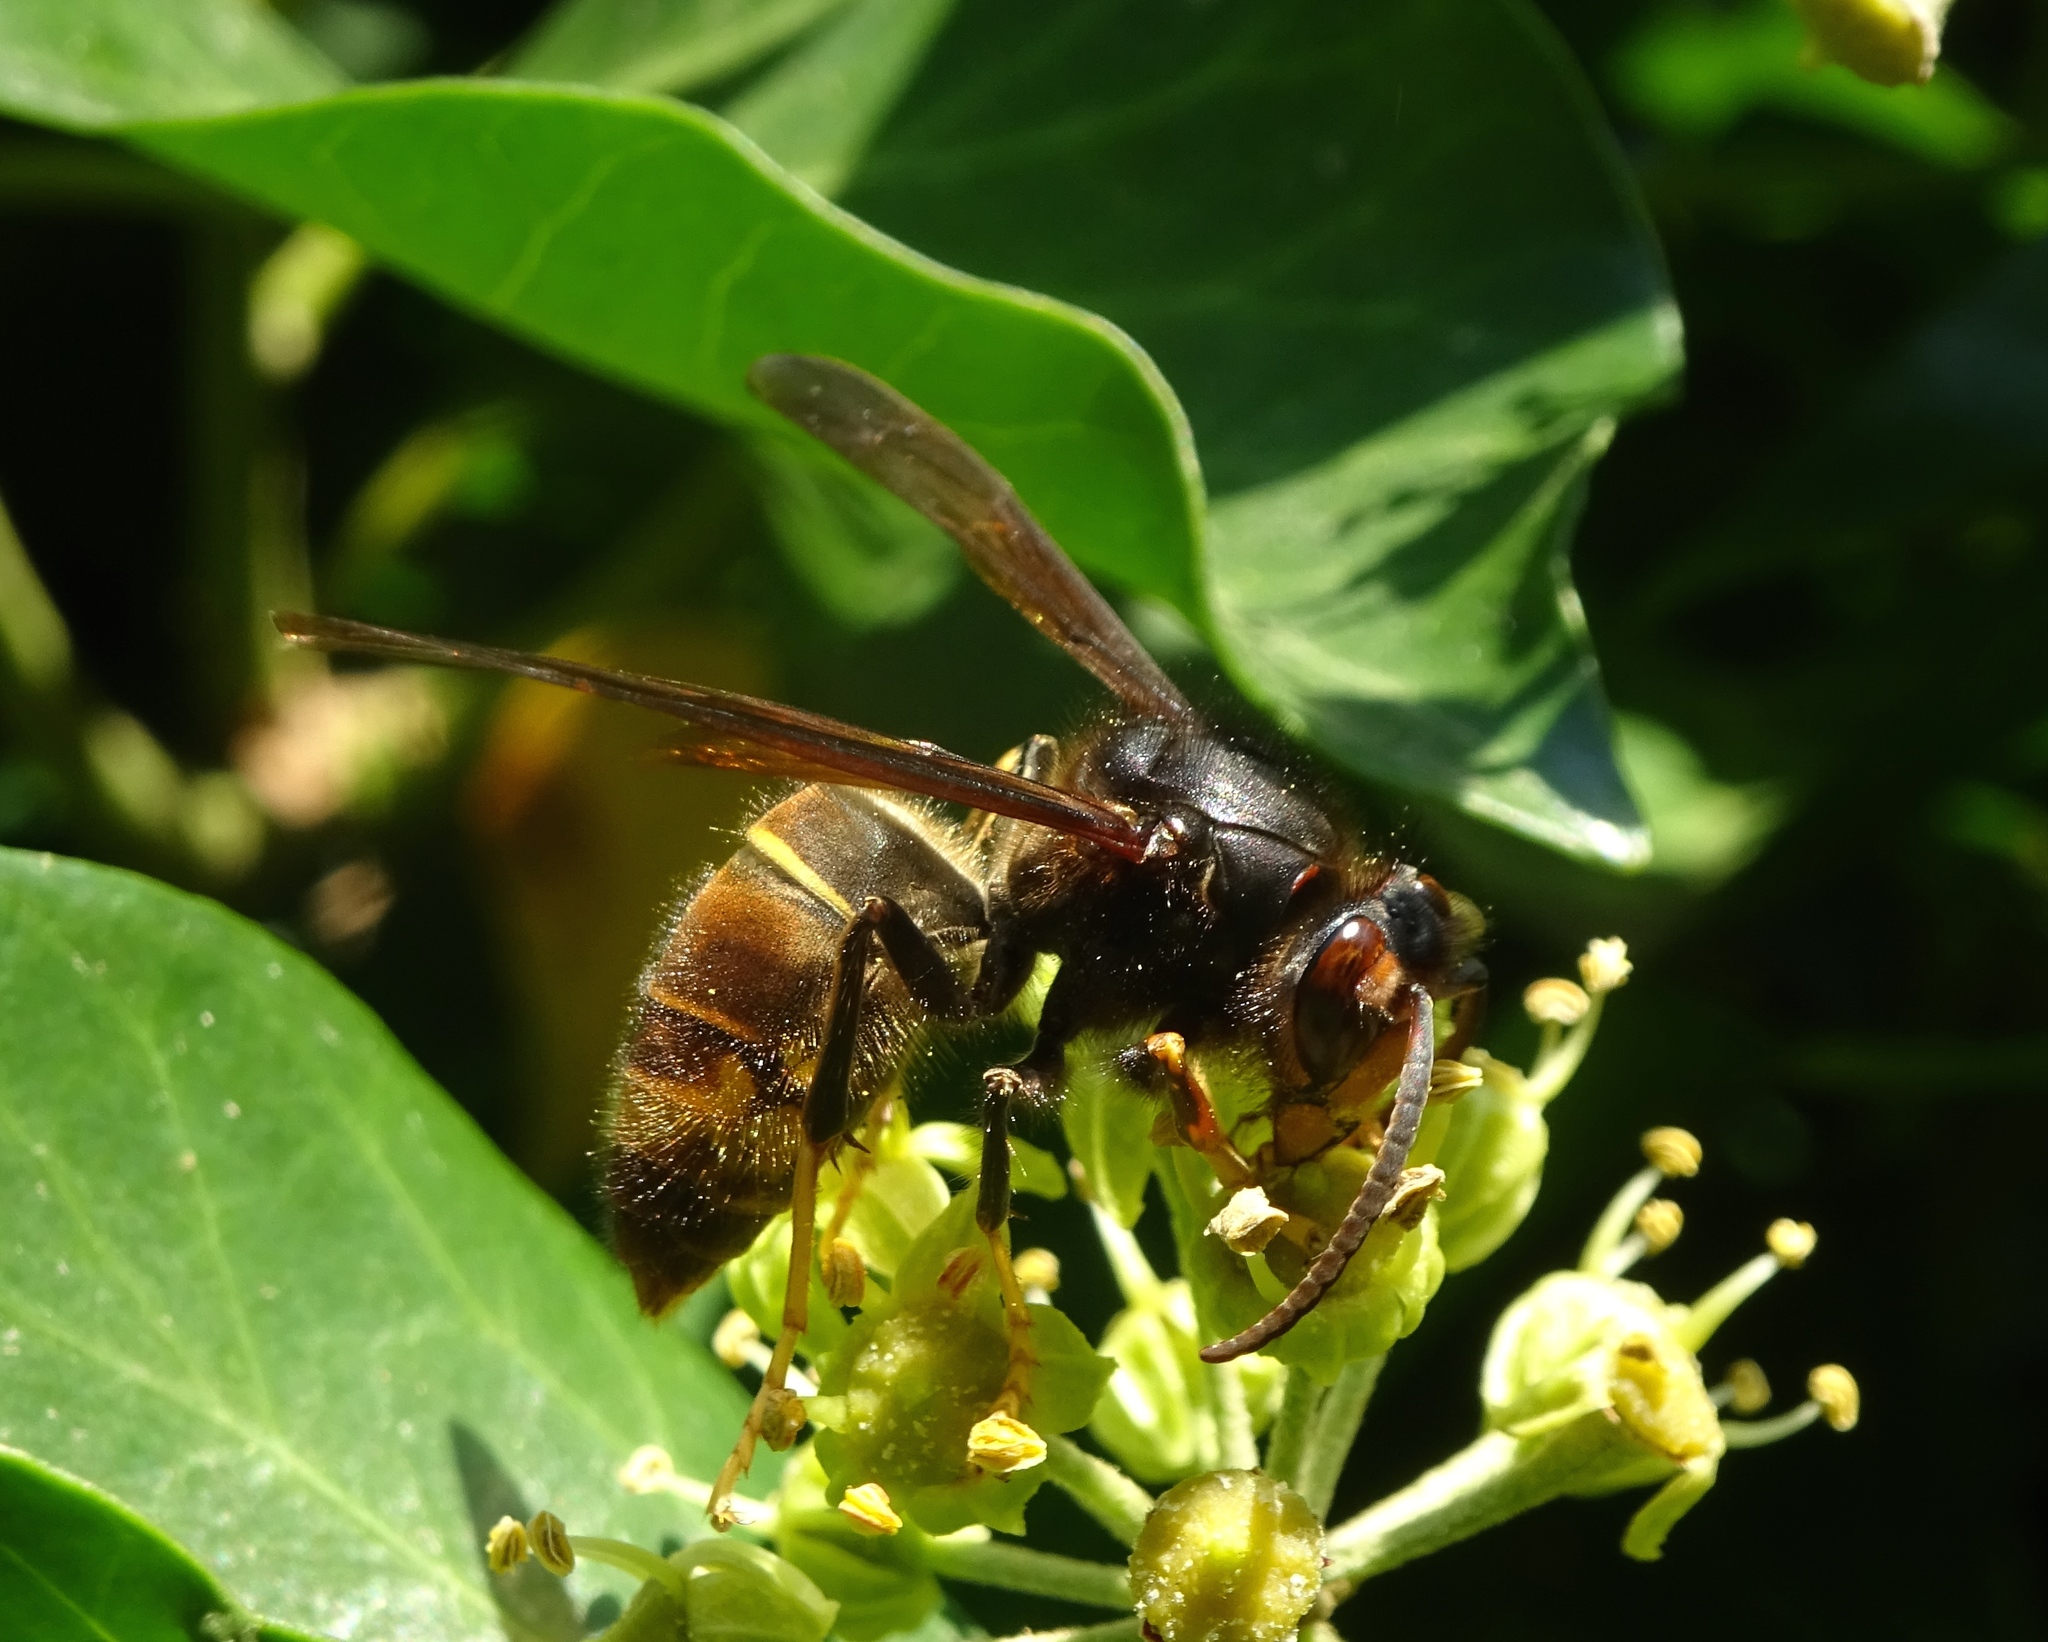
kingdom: Animalia
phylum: Arthropoda
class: Insecta
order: Hymenoptera
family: Vespidae
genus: Vespa
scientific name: Vespa velutina
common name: Asian hornet
